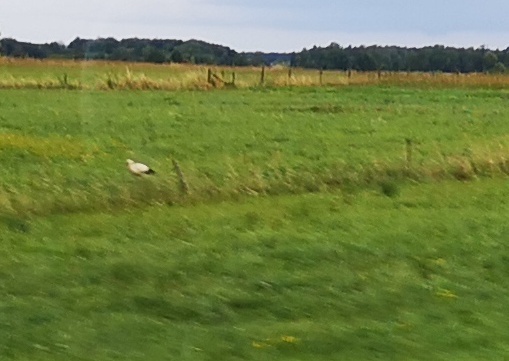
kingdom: Animalia
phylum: Chordata
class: Aves
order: Ciconiiformes
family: Ciconiidae
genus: Ciconia
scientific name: Ciconia ciconia
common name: White stork
